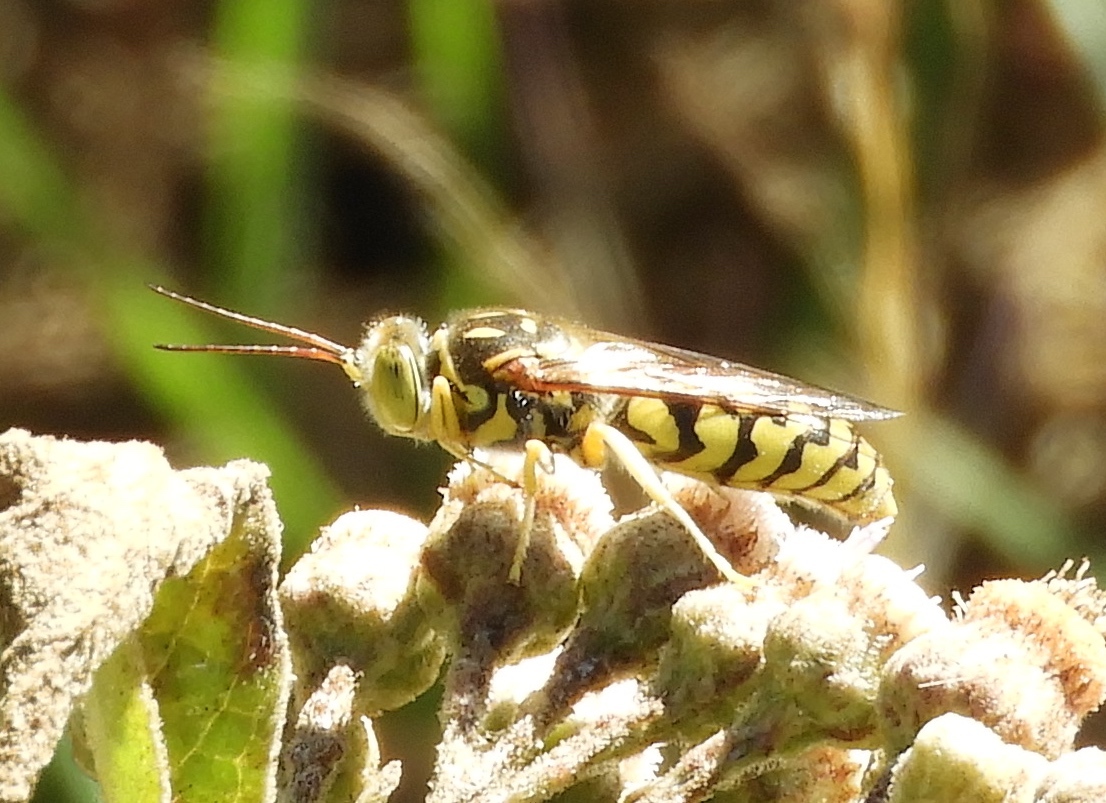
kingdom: Animalia
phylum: Arthropoda
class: Insecta
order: Hymenoptera
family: Crabronidae
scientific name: Crabronidae
